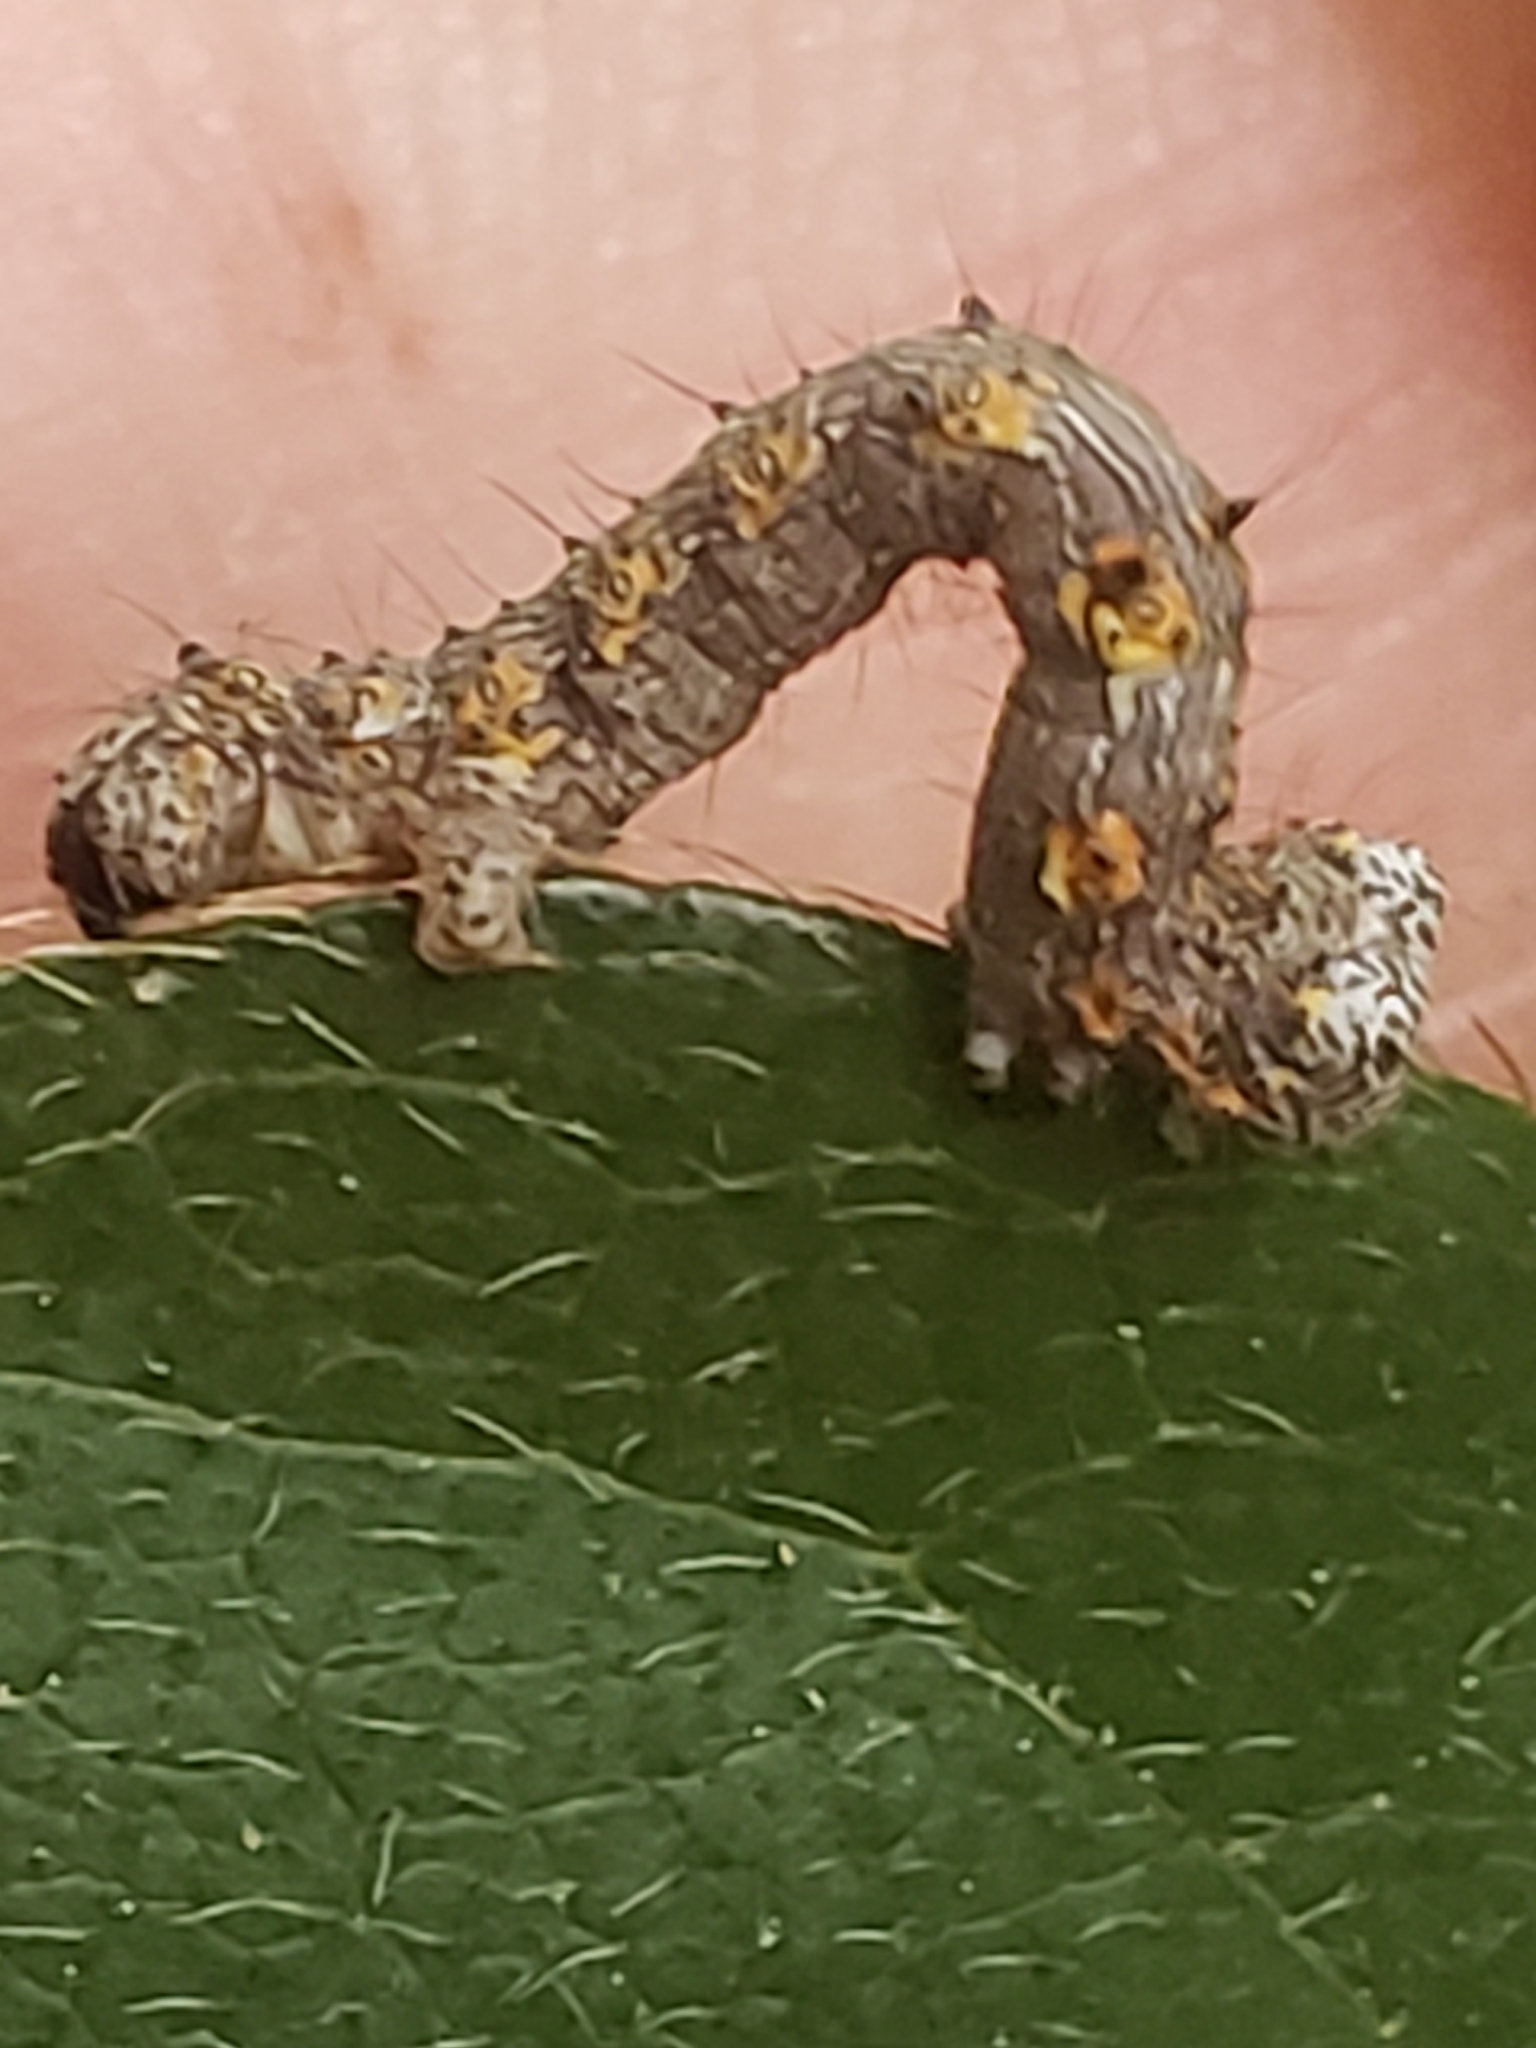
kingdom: Animalia
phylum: Arthropoda
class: Insecta
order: Lepidoptera
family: Geometridae
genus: Phigalia
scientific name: Phigalia titea
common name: Spiny looper
